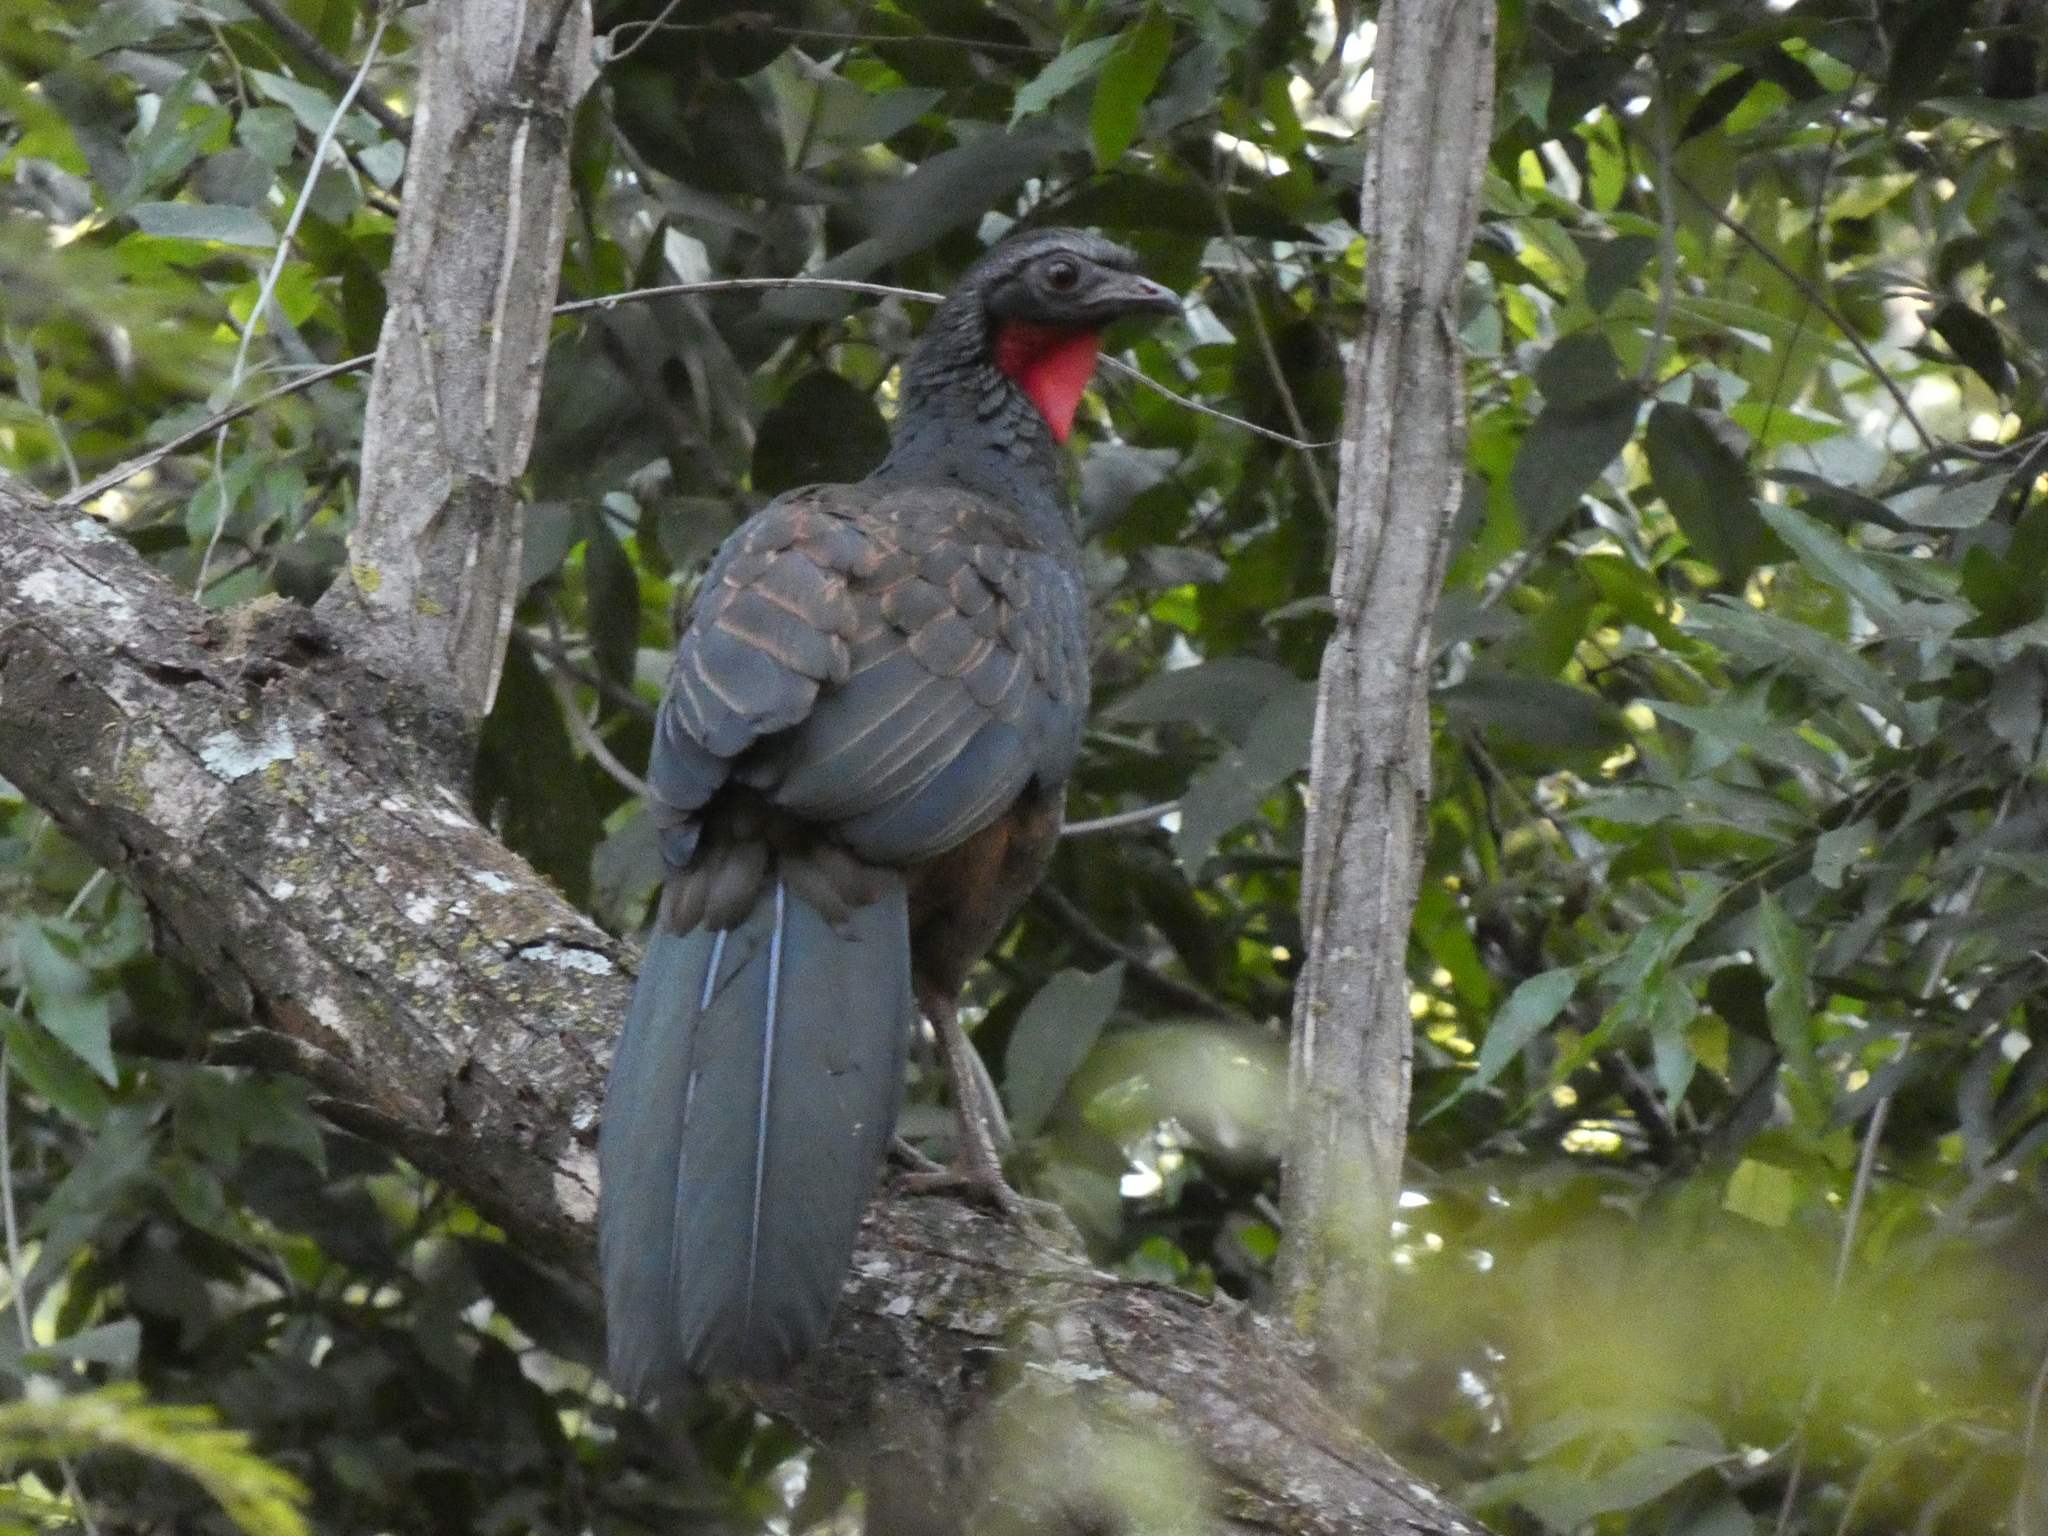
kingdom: Animalia
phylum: Chordata
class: Aves
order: Galliformes
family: Cracidae
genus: Penelope
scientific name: Penelope superciliaris
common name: Rusty-margined guan
